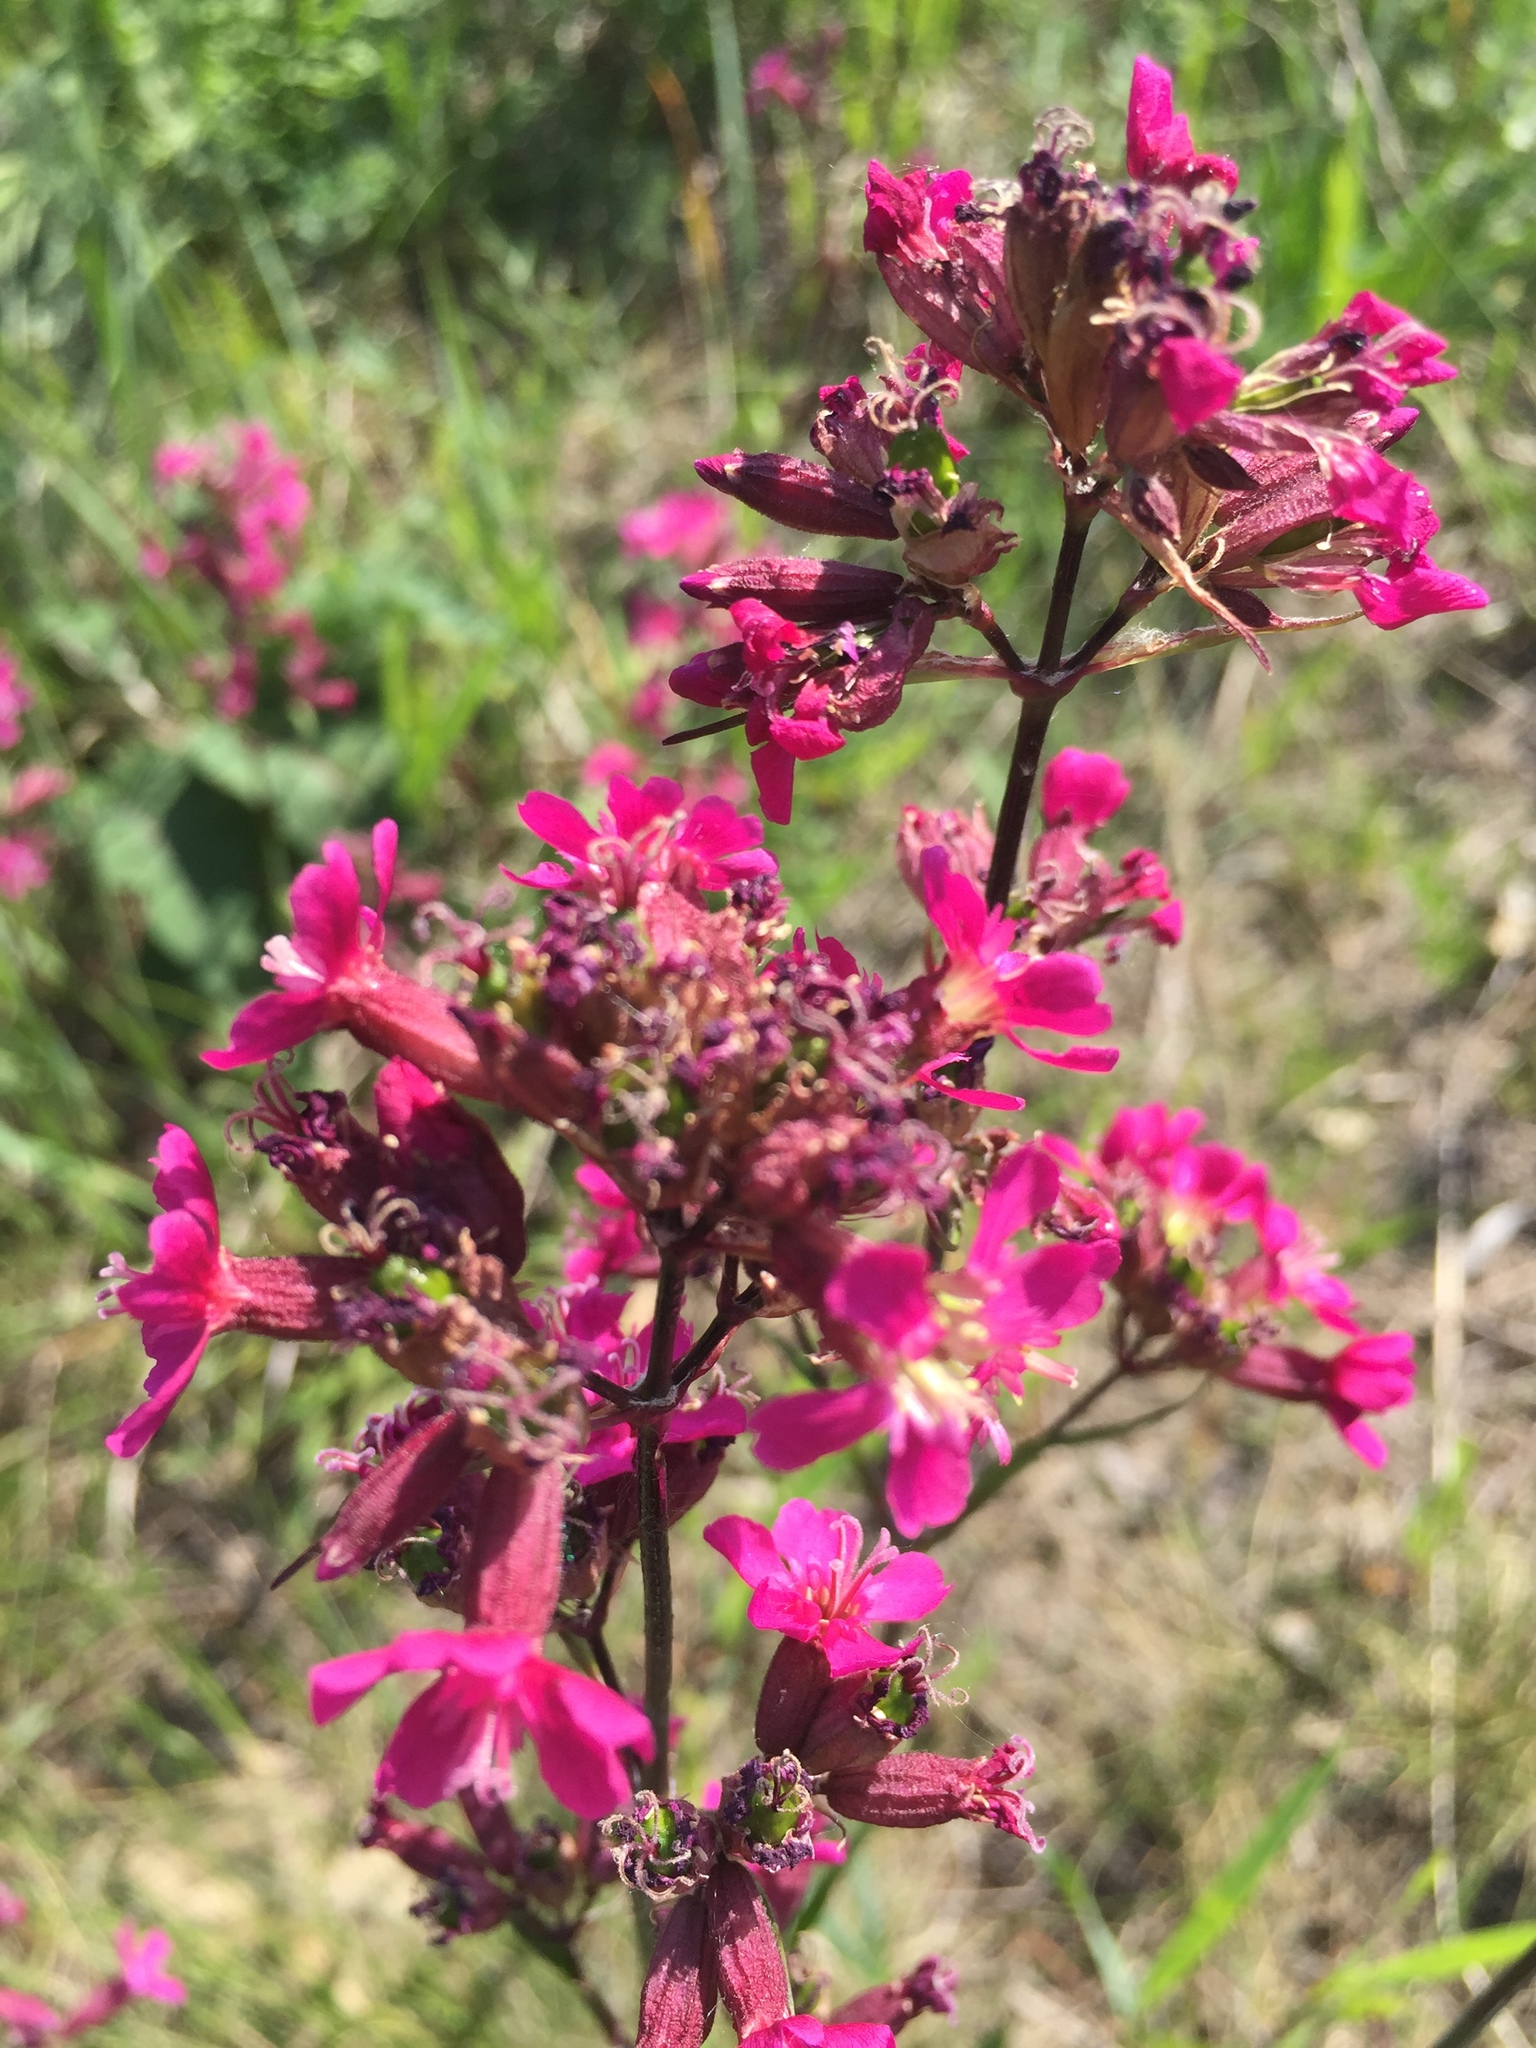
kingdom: Plantae
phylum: Tracheophyta
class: Magnoliopsida
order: Caryophyllales
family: Caryophyllaceae
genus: Viscaria
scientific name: Viscaria vulgaris
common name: Clammy campion
